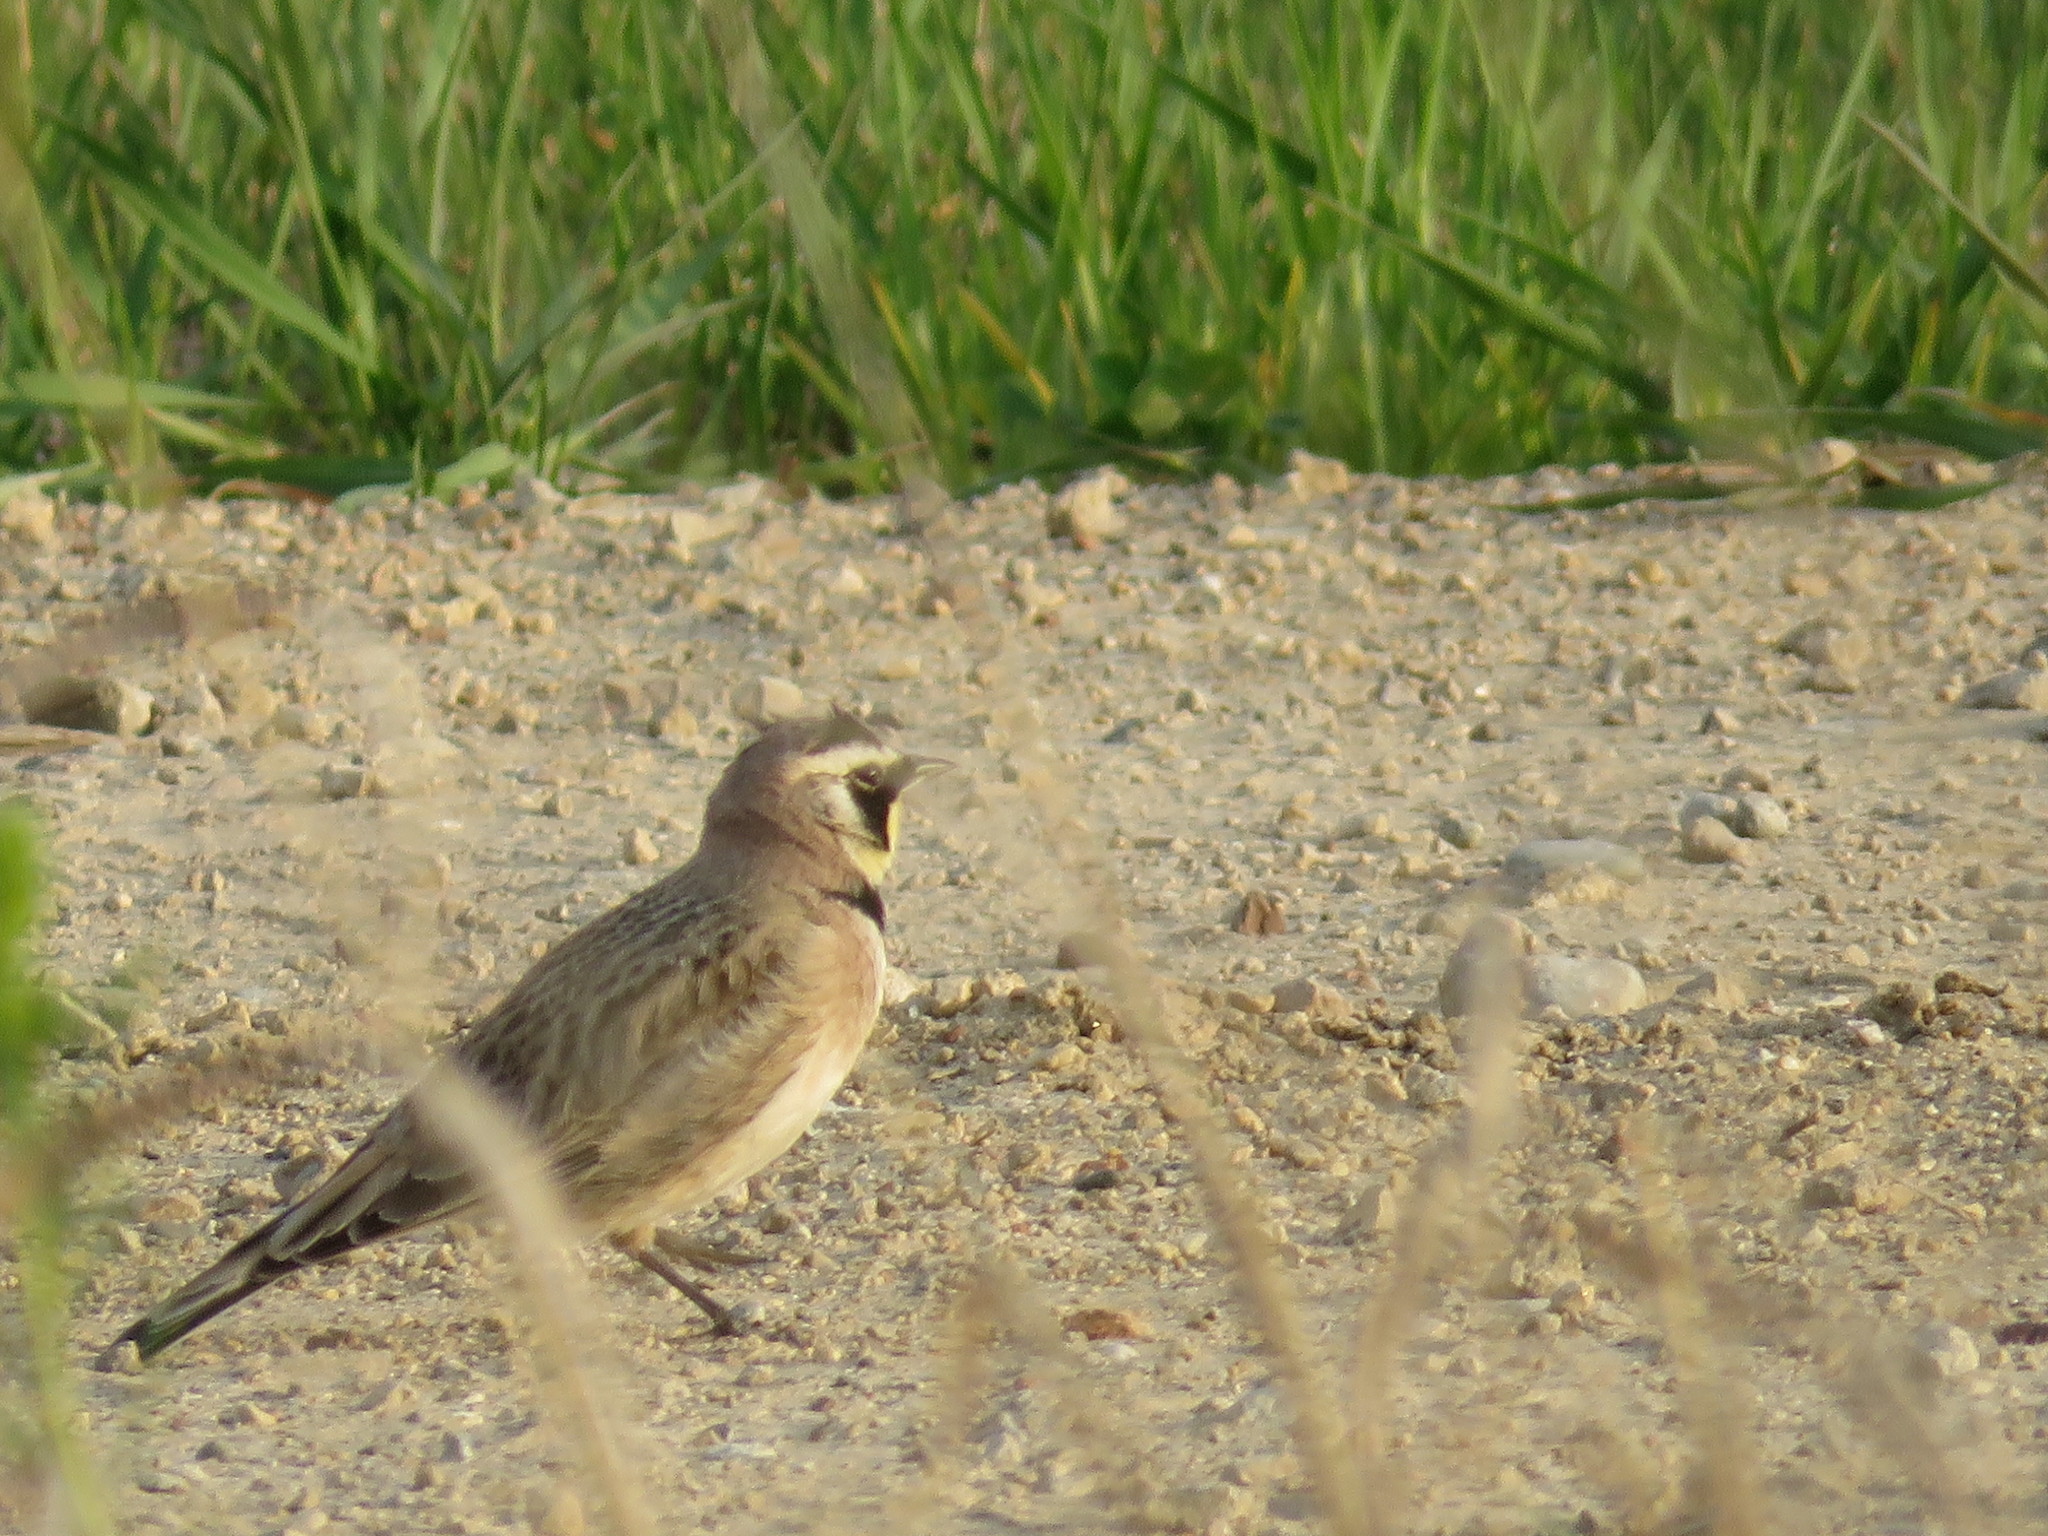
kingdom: Animalia
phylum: Chordata
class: Aves
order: Passeriformes
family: Alaudidae
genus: Eremophila
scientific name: Eremophila alpestris
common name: Horned lark
